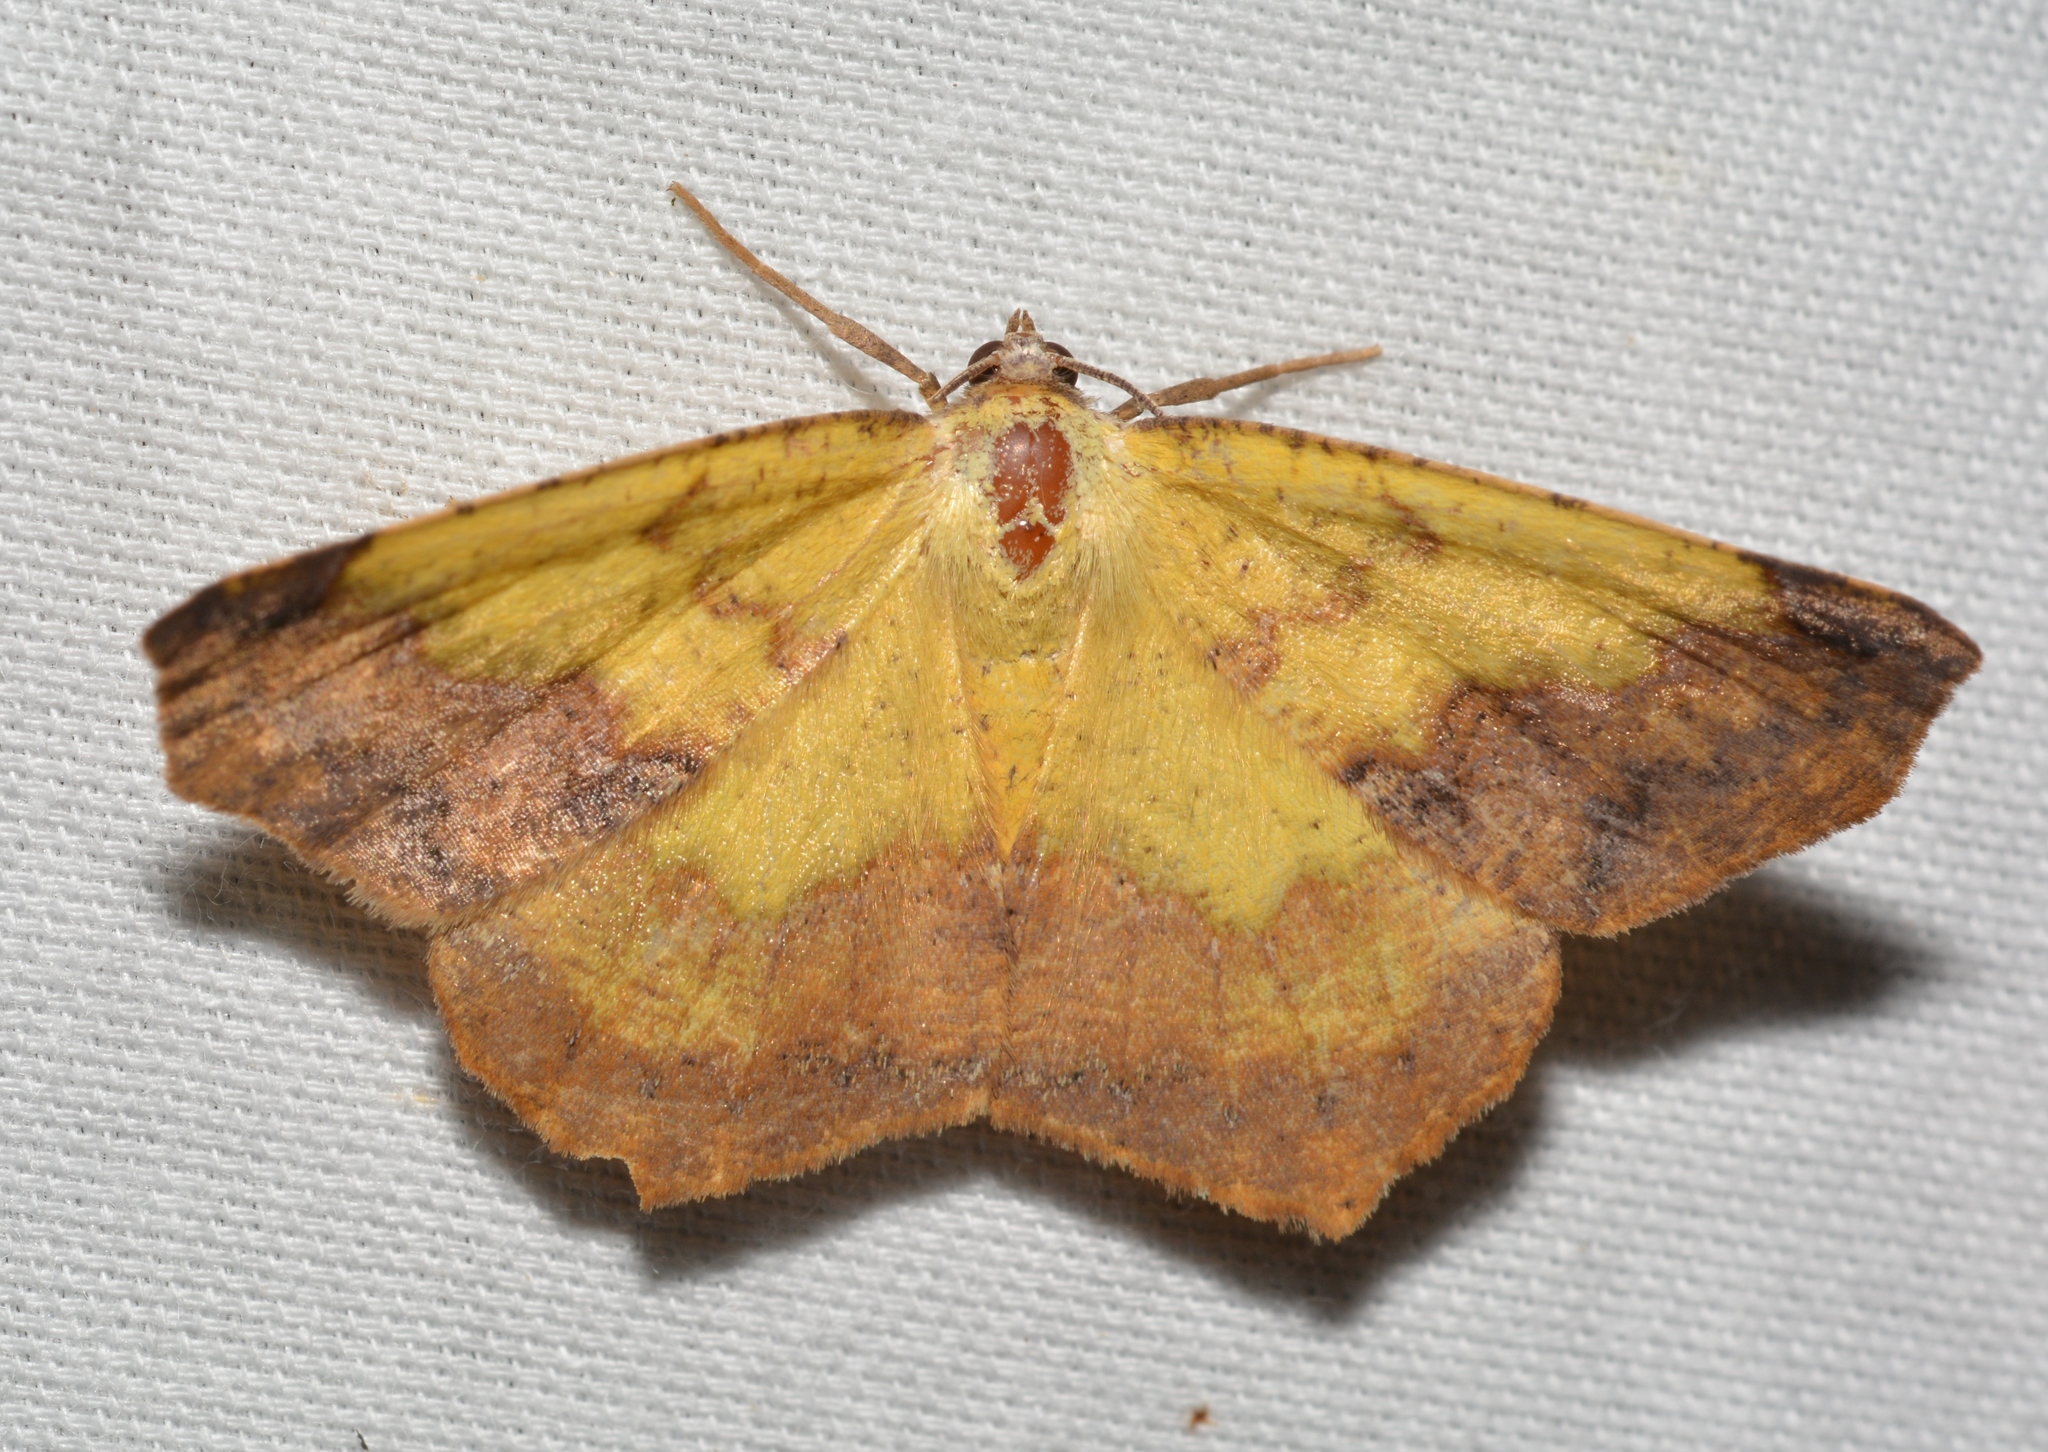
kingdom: Animalia
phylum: Arthropoda
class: Insecta
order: Lepidoptera
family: Geometridae
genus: Antepione
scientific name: Antepione thisoaria
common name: Variable antipione
